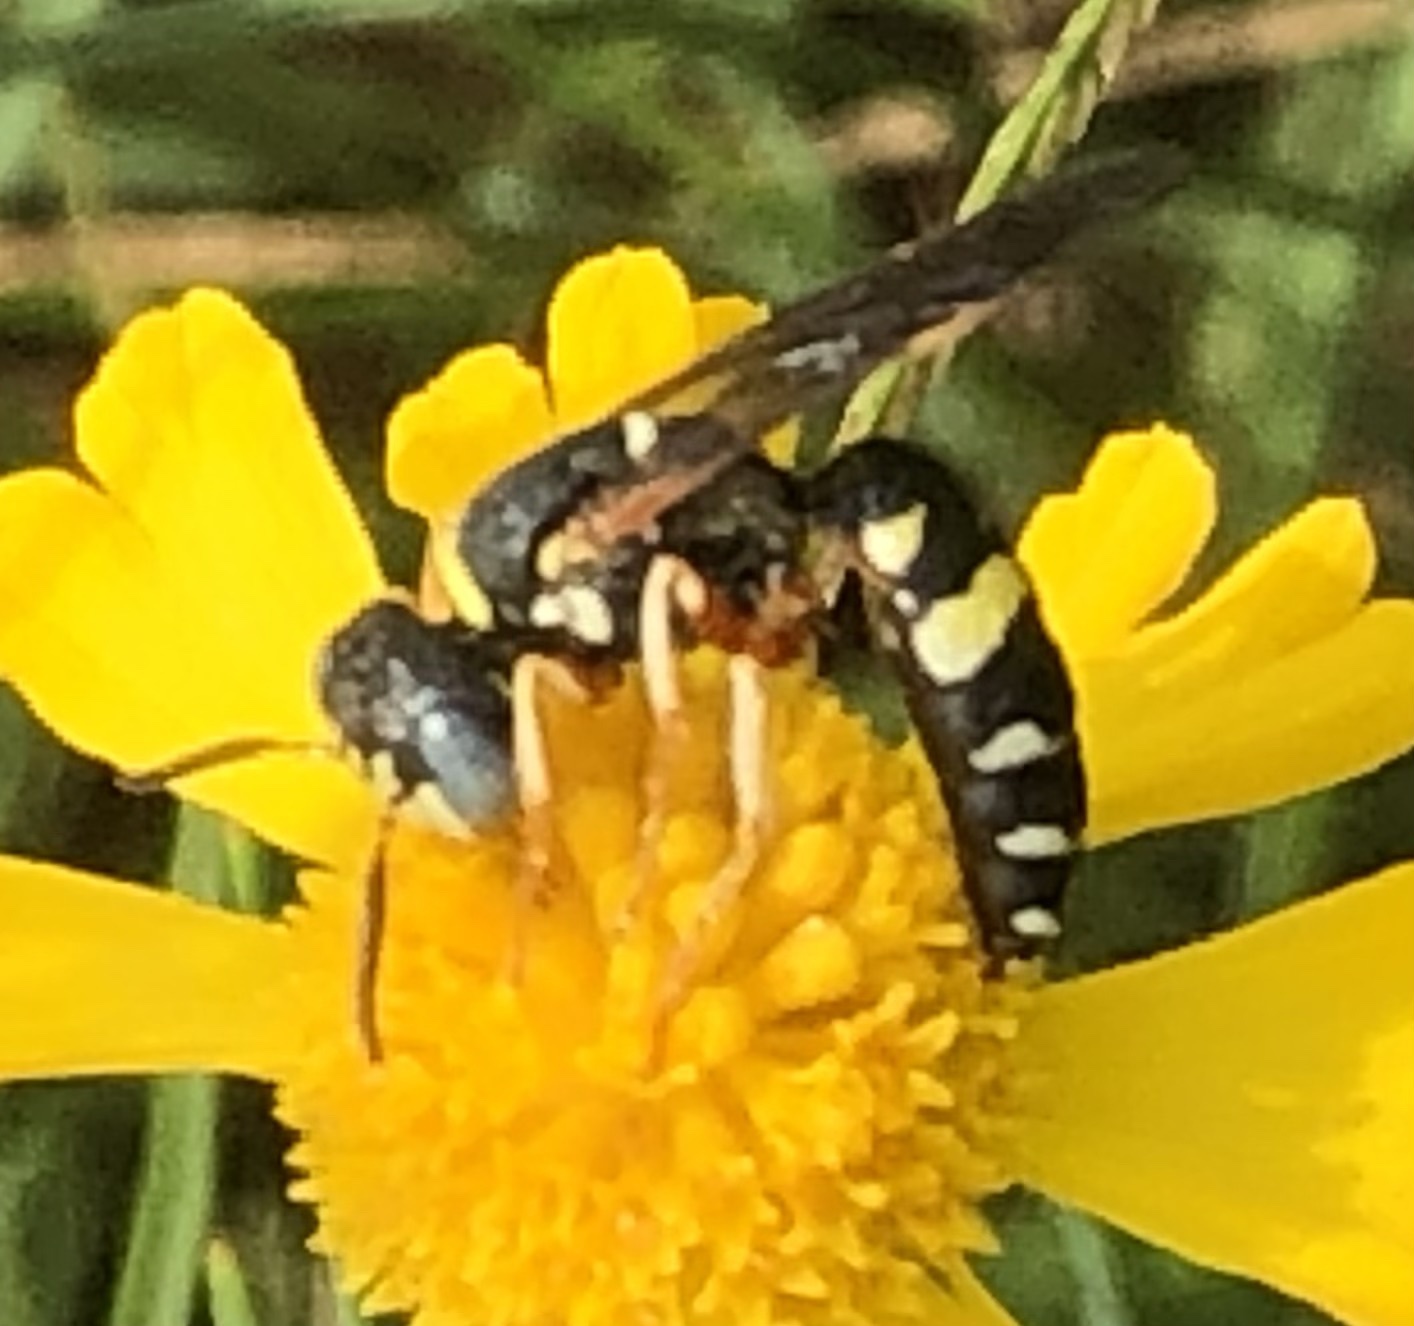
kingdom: Animalia
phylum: Arthropoda
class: Insecta
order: Hymenoptera
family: Crabronidae
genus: Philanthus
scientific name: Philanthus ventilabris
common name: Bee-killer wasp
